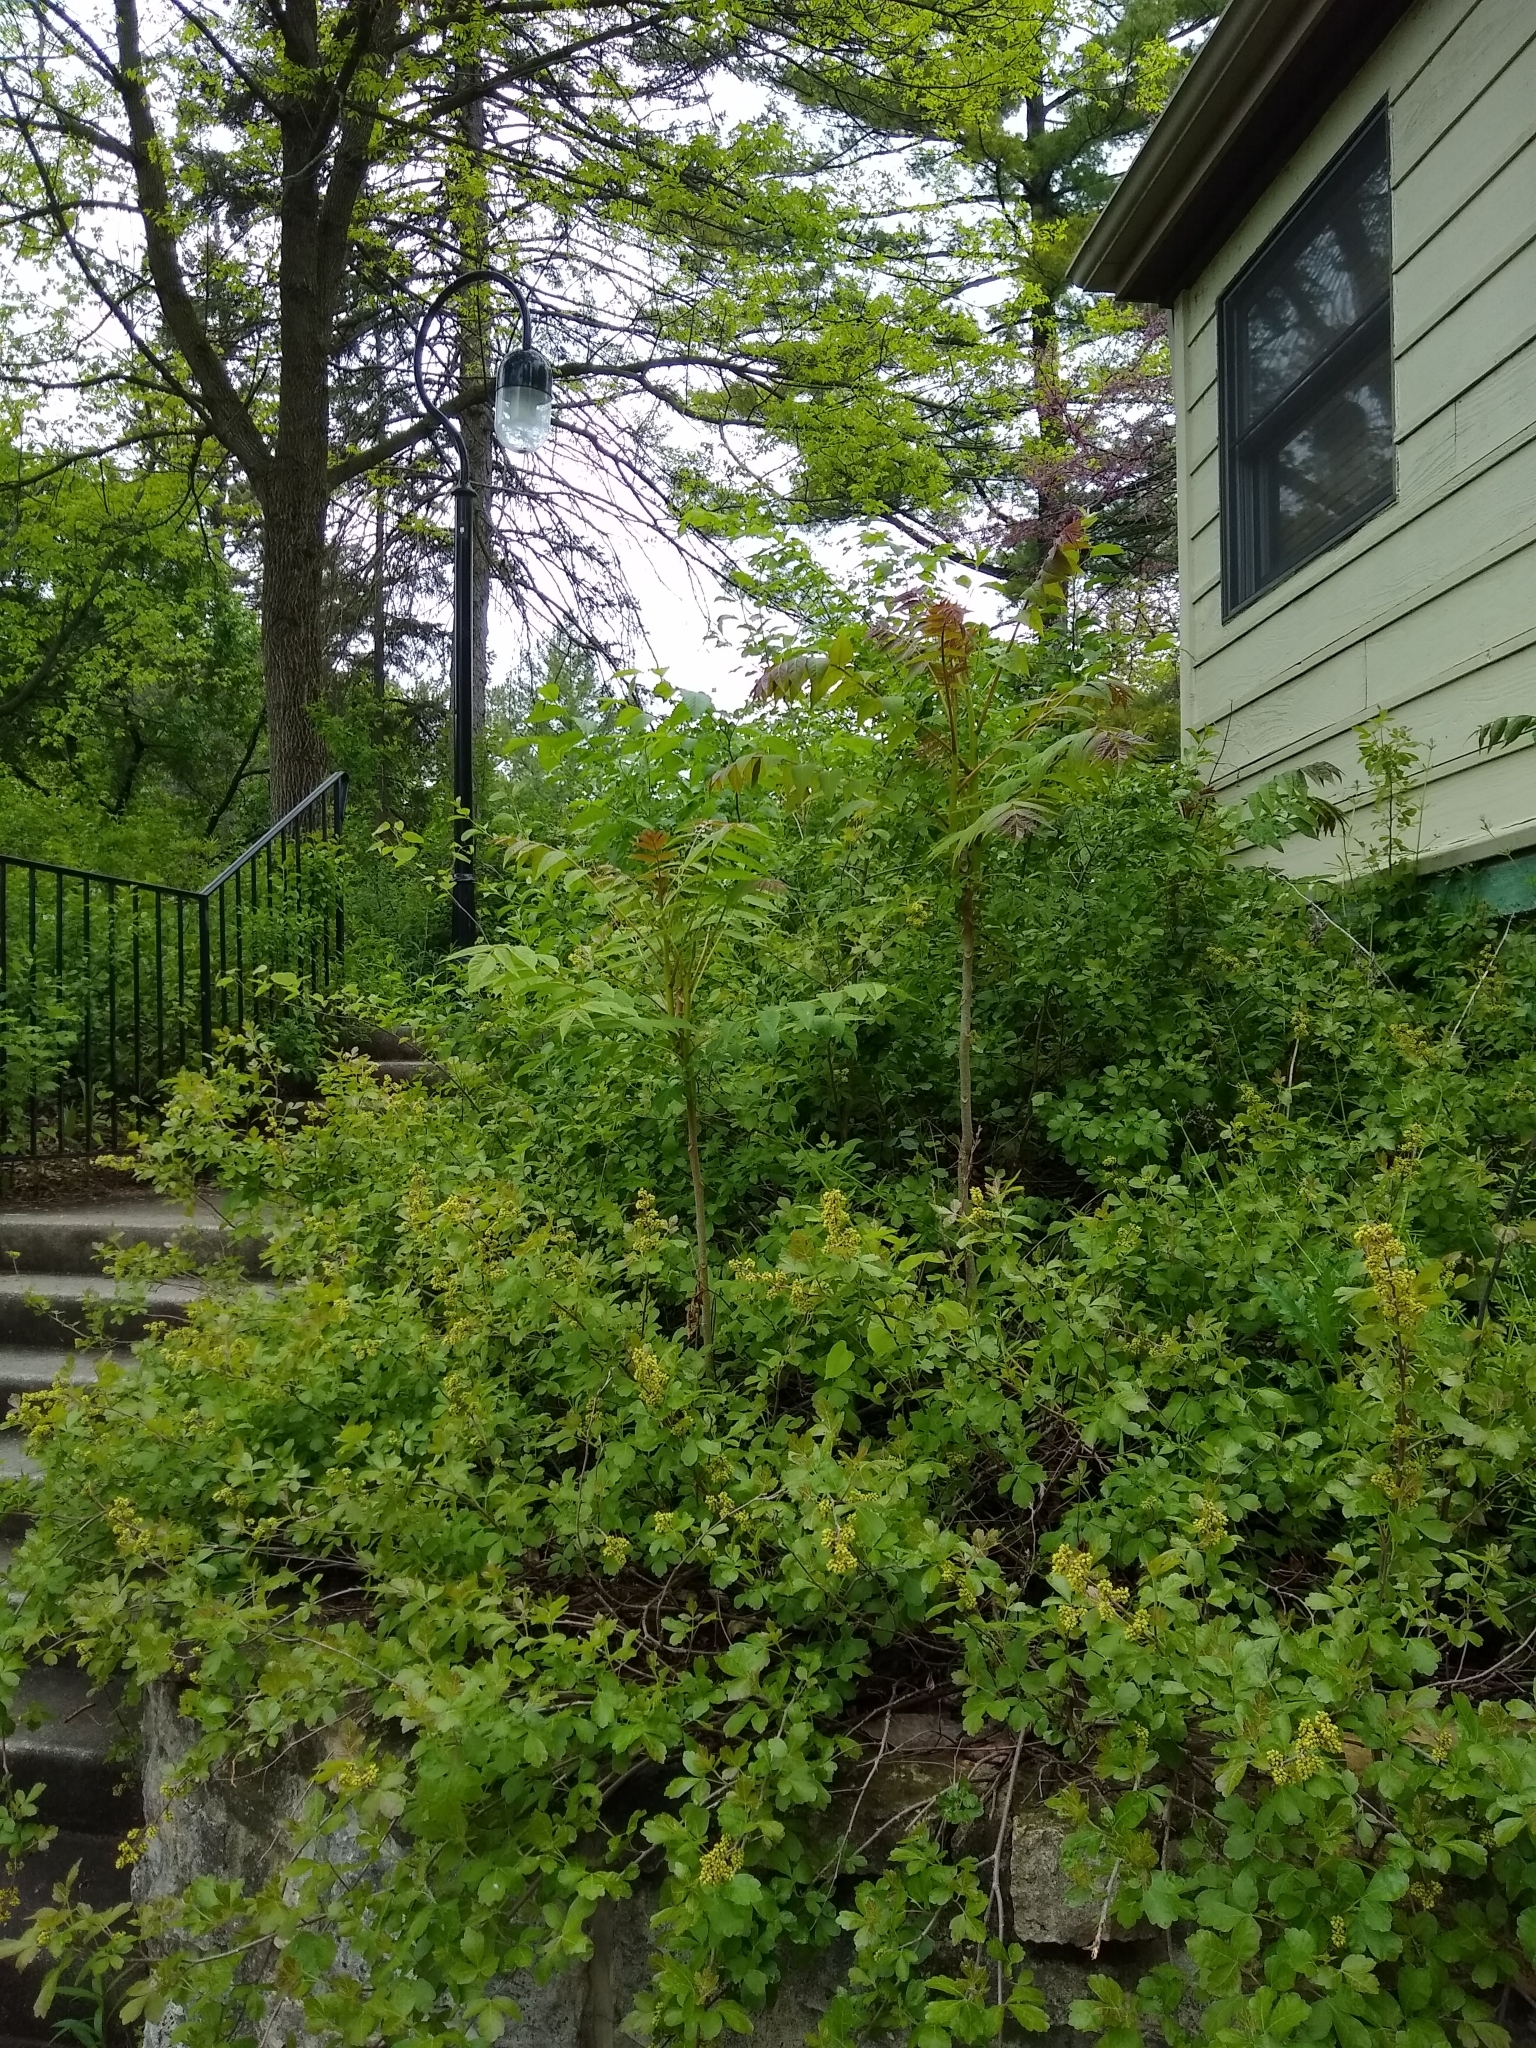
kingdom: Plantae
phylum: Tracheophyta
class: Magnoliopsida
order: Sapindales
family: Simaroubaceae
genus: Ailanthus
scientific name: Ailanthus altissima
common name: Tree-of-heaven
